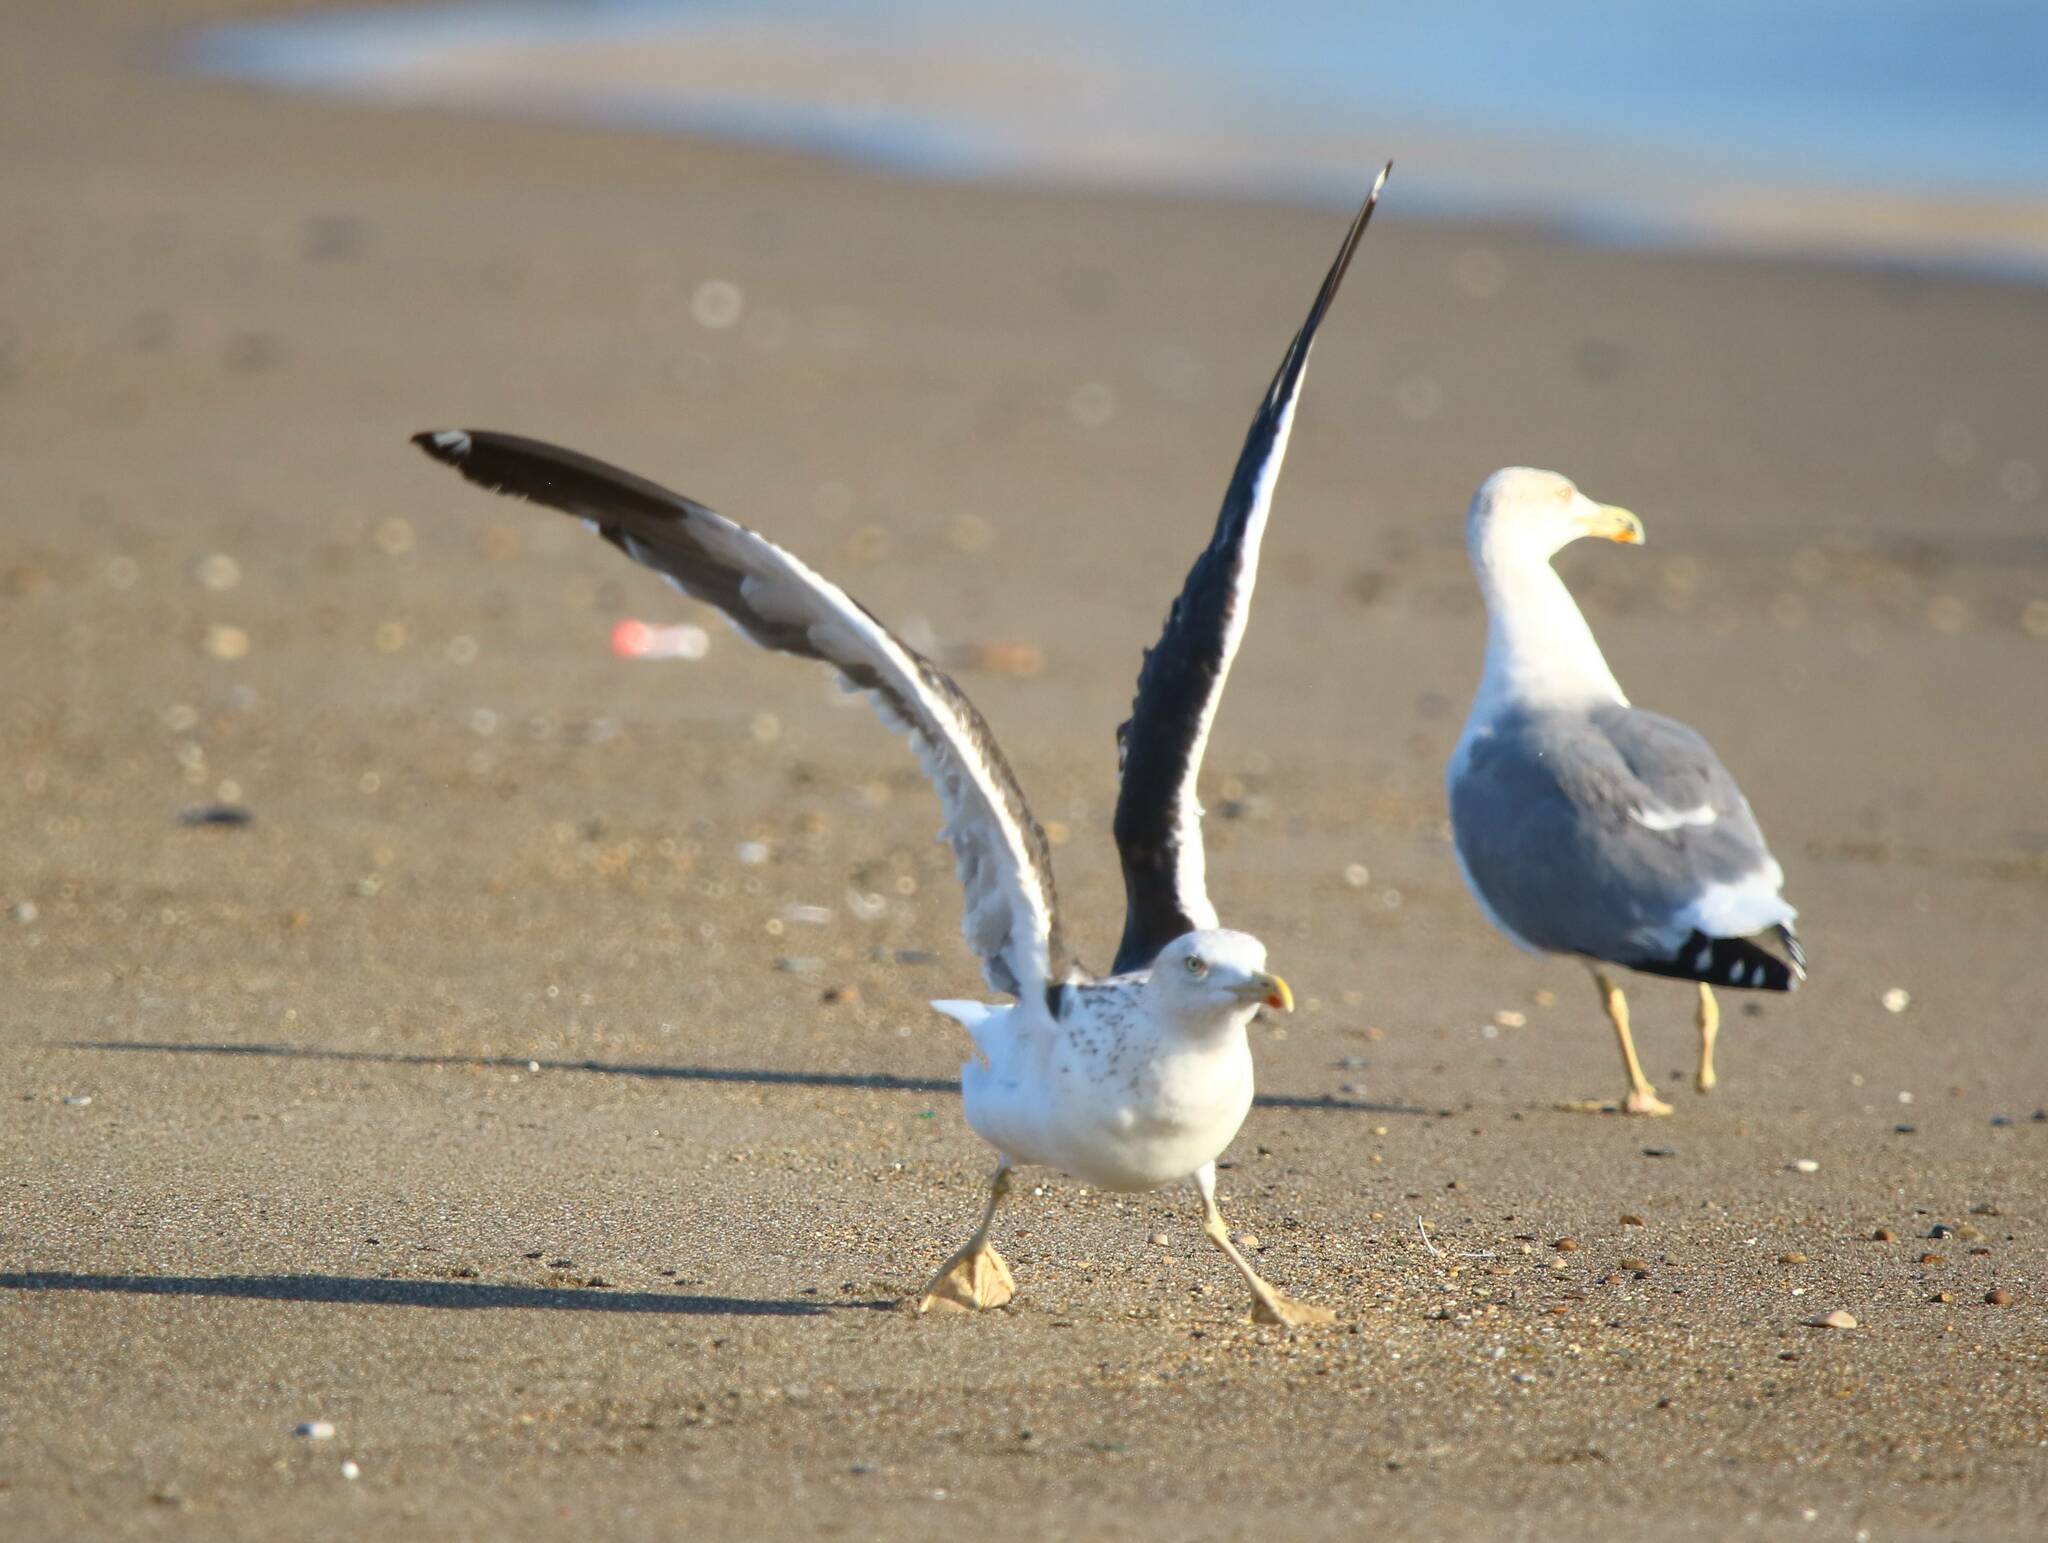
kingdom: Animalia
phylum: Chordata
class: Aves
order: Charadriiformes
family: Laridae
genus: Larus
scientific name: Larus fuscus
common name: Lesser black-backed gull
